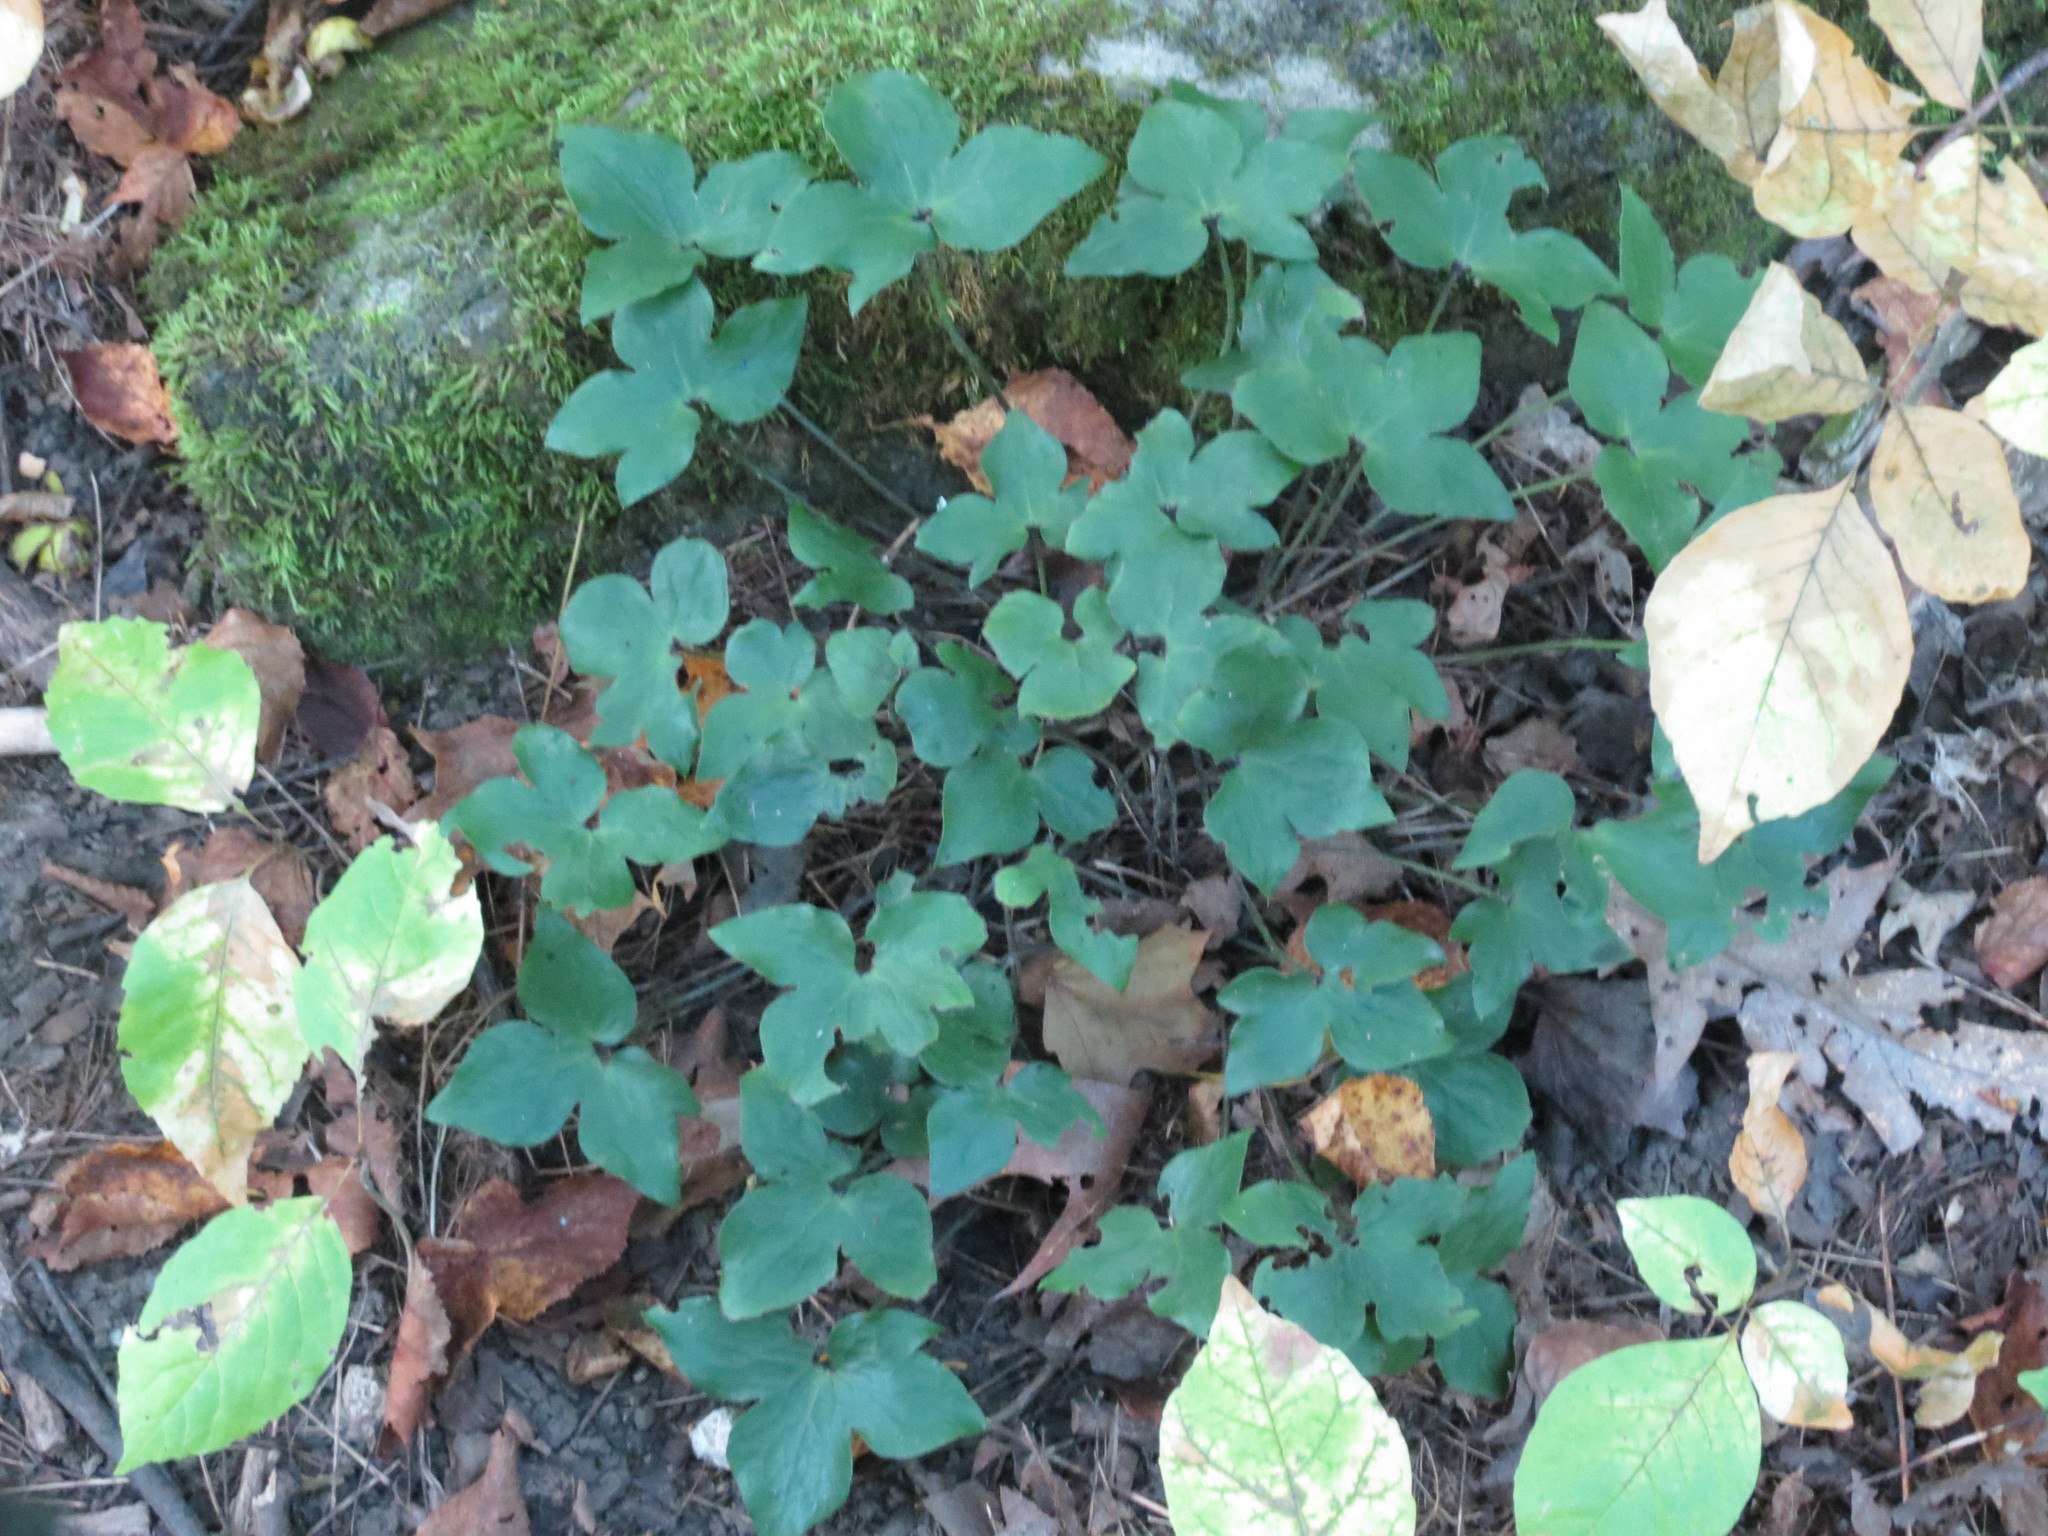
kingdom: Plantae
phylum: Tracheophyta
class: Magnoliopsida
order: Ranunculales
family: Ranunculaceae
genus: Hepatica
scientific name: Hepatica acutiloba
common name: Sharp-lobed hepatica
